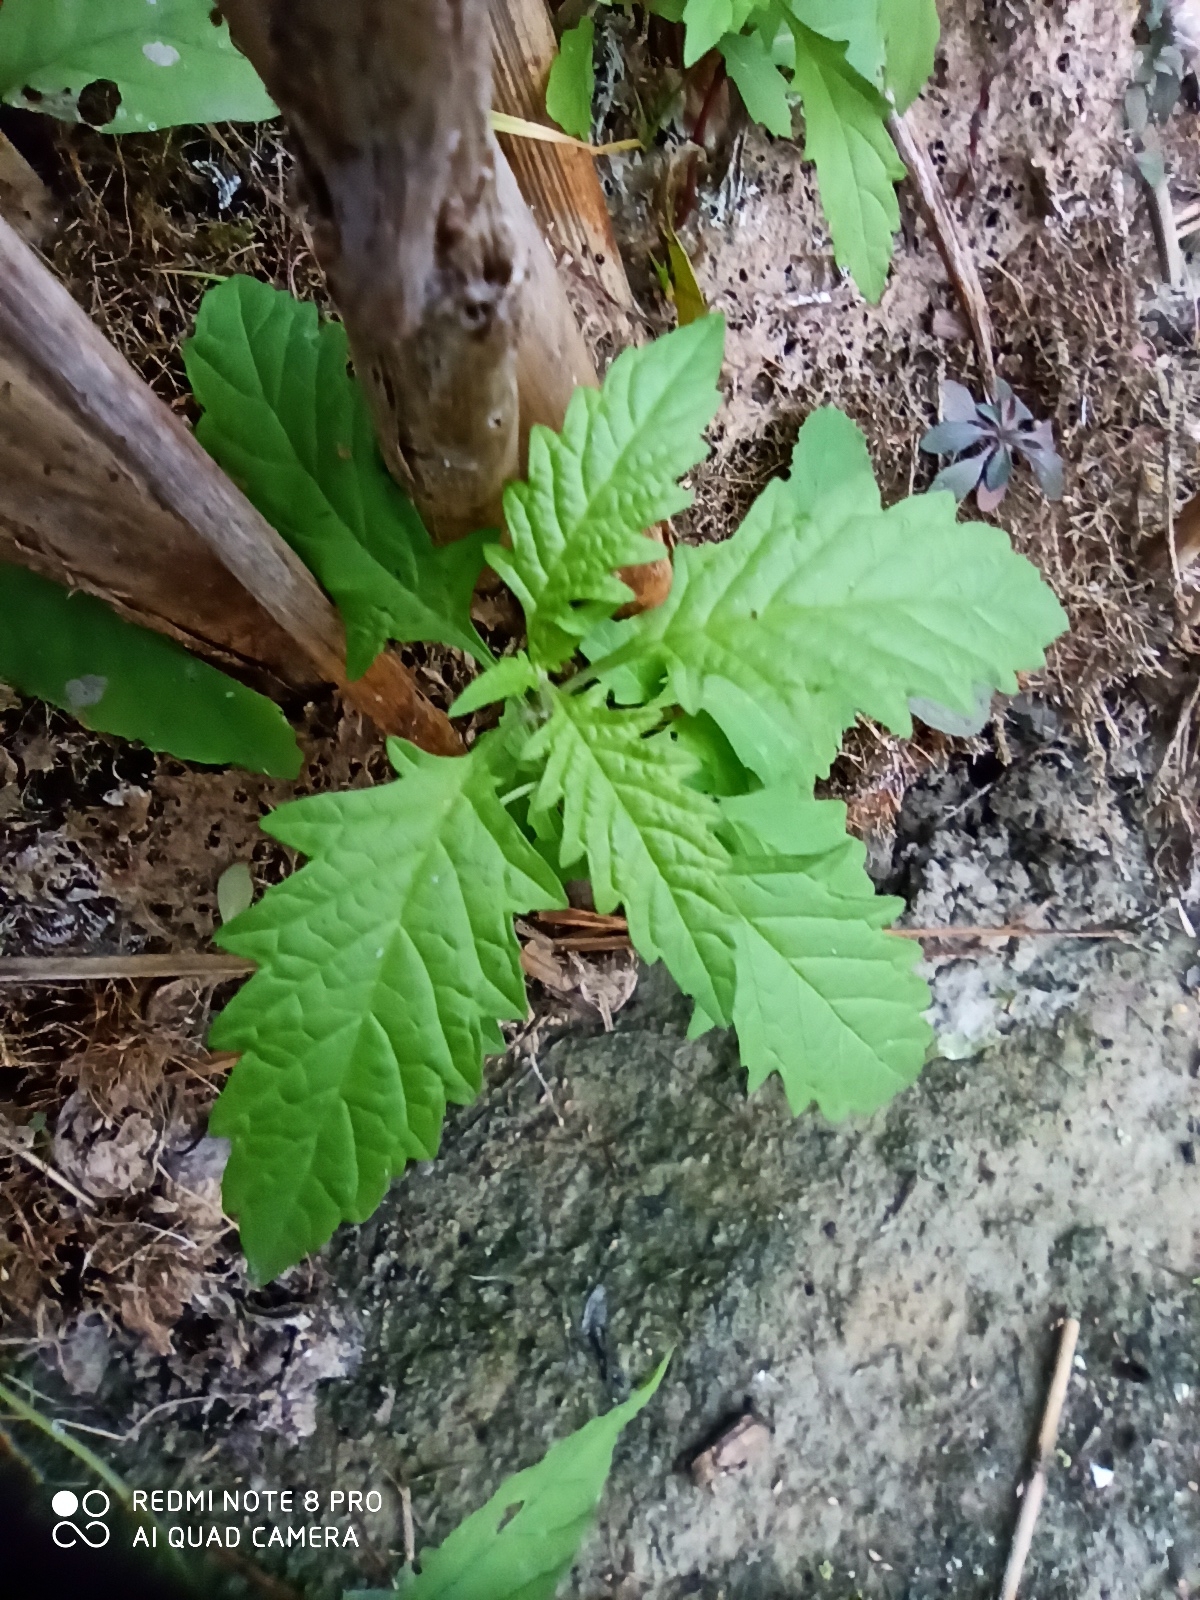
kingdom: Plantae
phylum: Tracheophyta
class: Magnoliopsida
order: Lamiales
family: Lamiaceae
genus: Lycopus
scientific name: Lycopus europaeus
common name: European bugleweed
